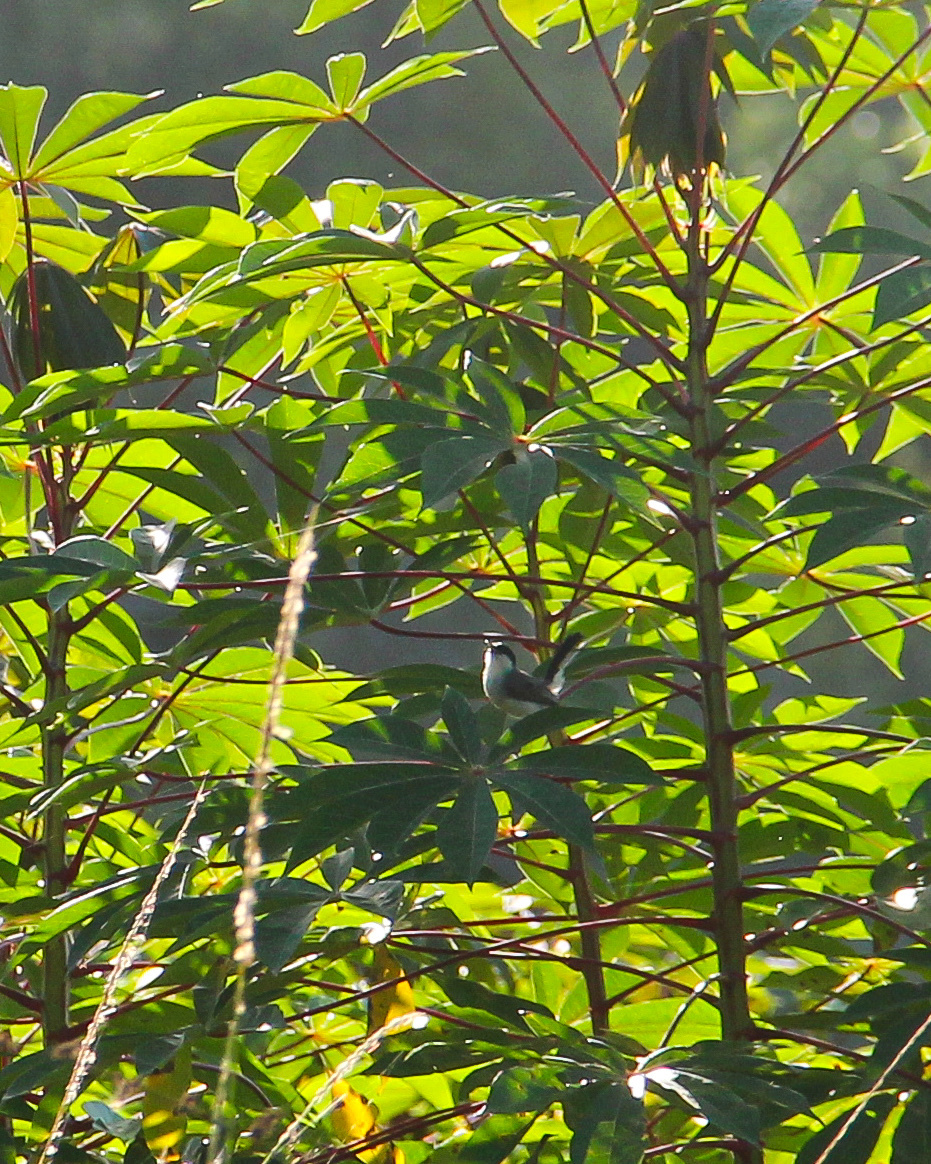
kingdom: Animalia
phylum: Chordata
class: Aves
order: Passeriformes
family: Polioptilidae
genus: Polioptila
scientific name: Polioptila plumbea
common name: Tropical gnatcatcher
